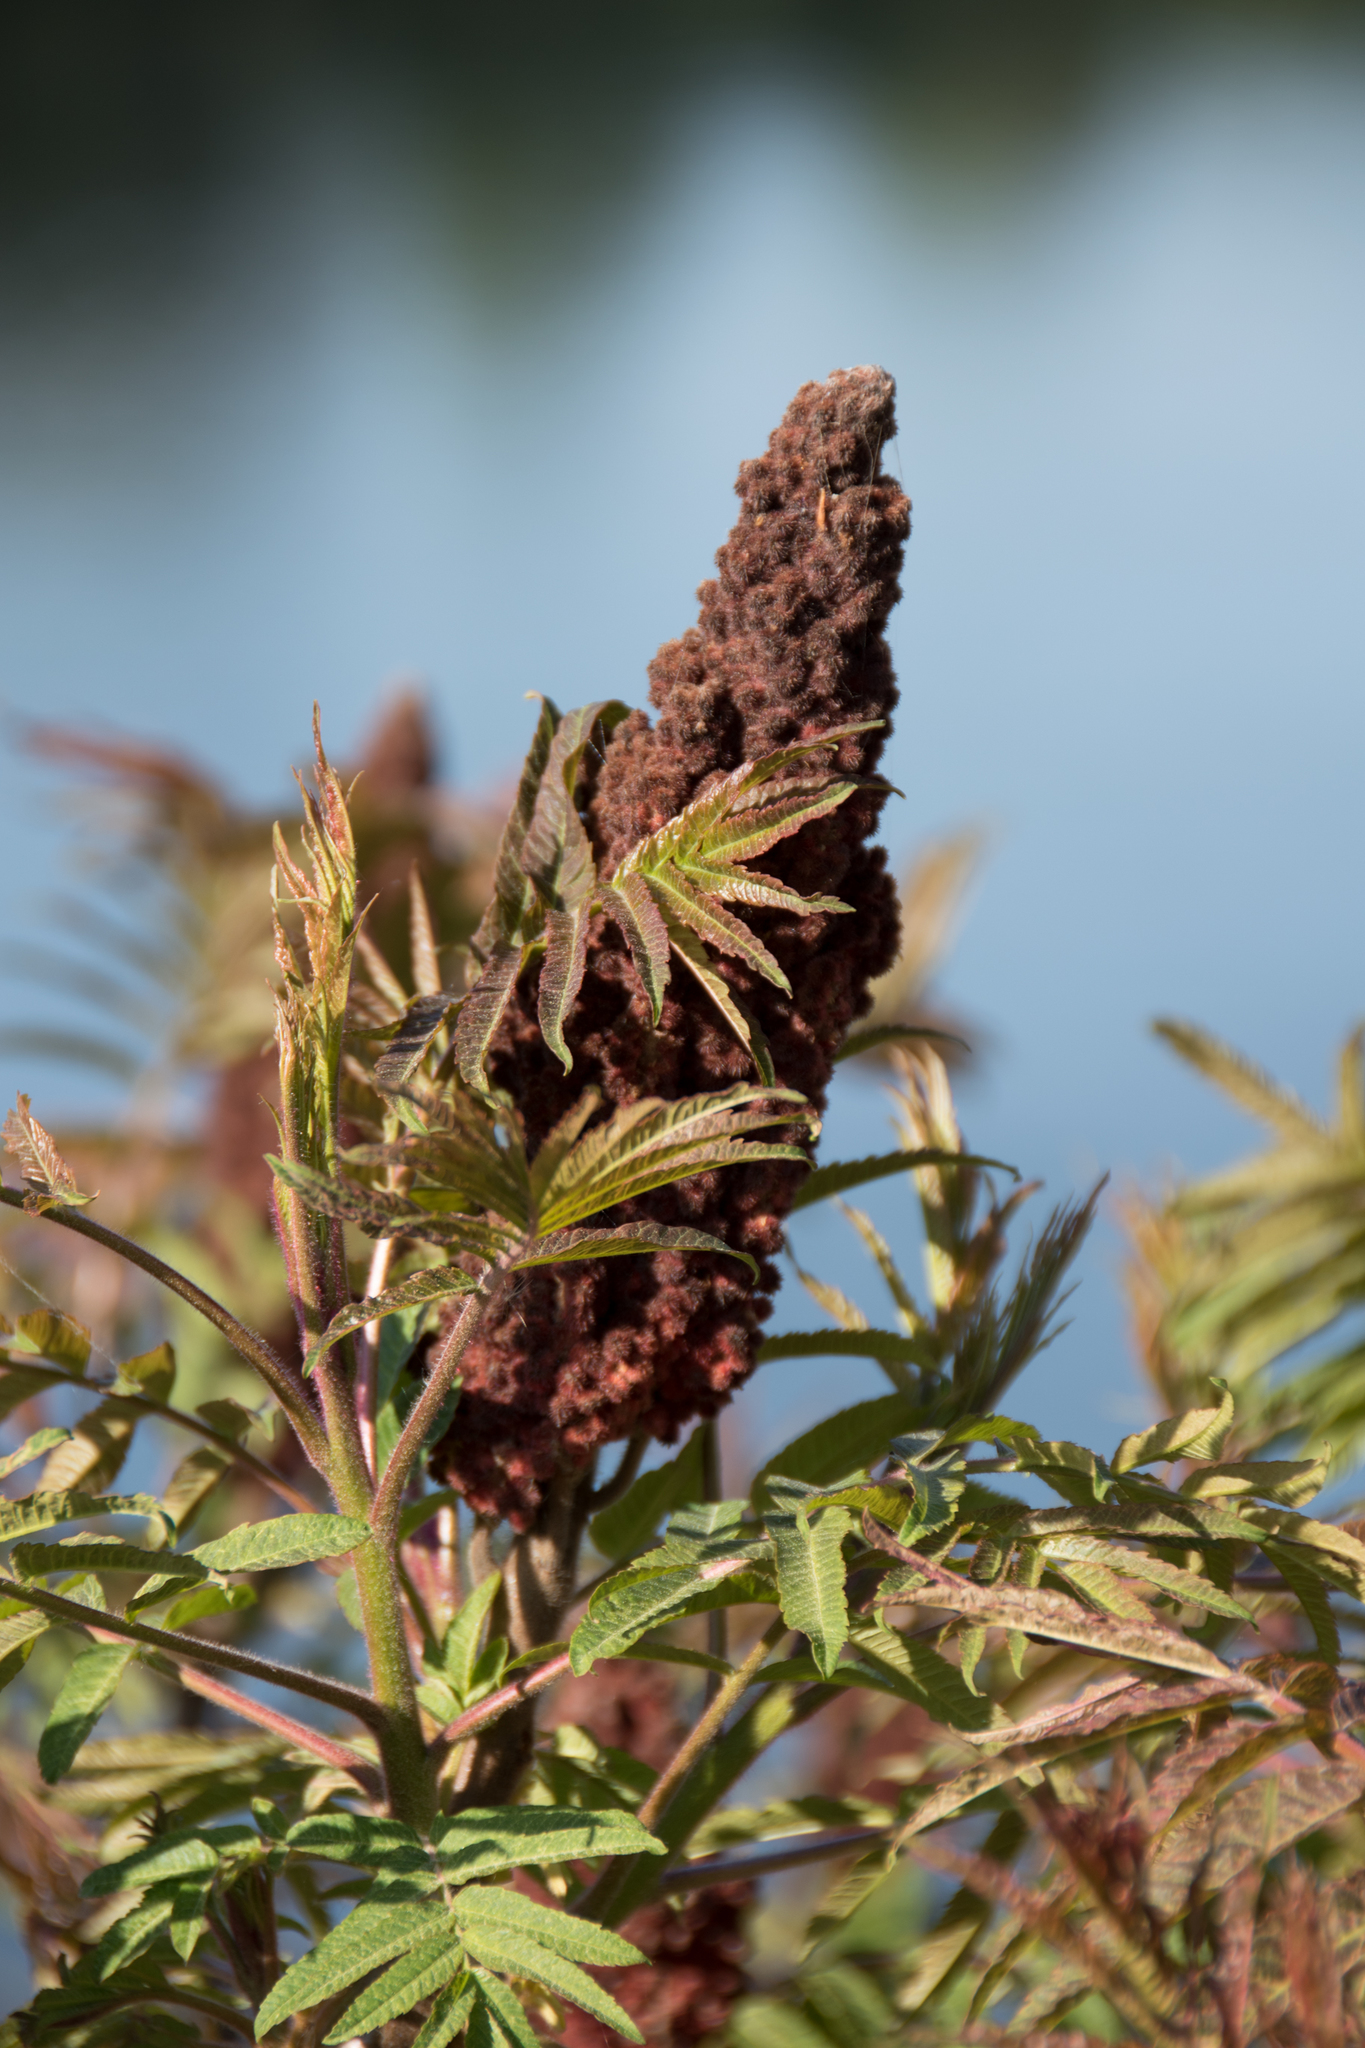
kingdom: Plantae
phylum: Tracheophyta
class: Magnoliopsida
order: Sapindales
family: Anacardiaceae
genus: Rhus
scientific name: Rhus typhina
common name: Staghorn sumac
